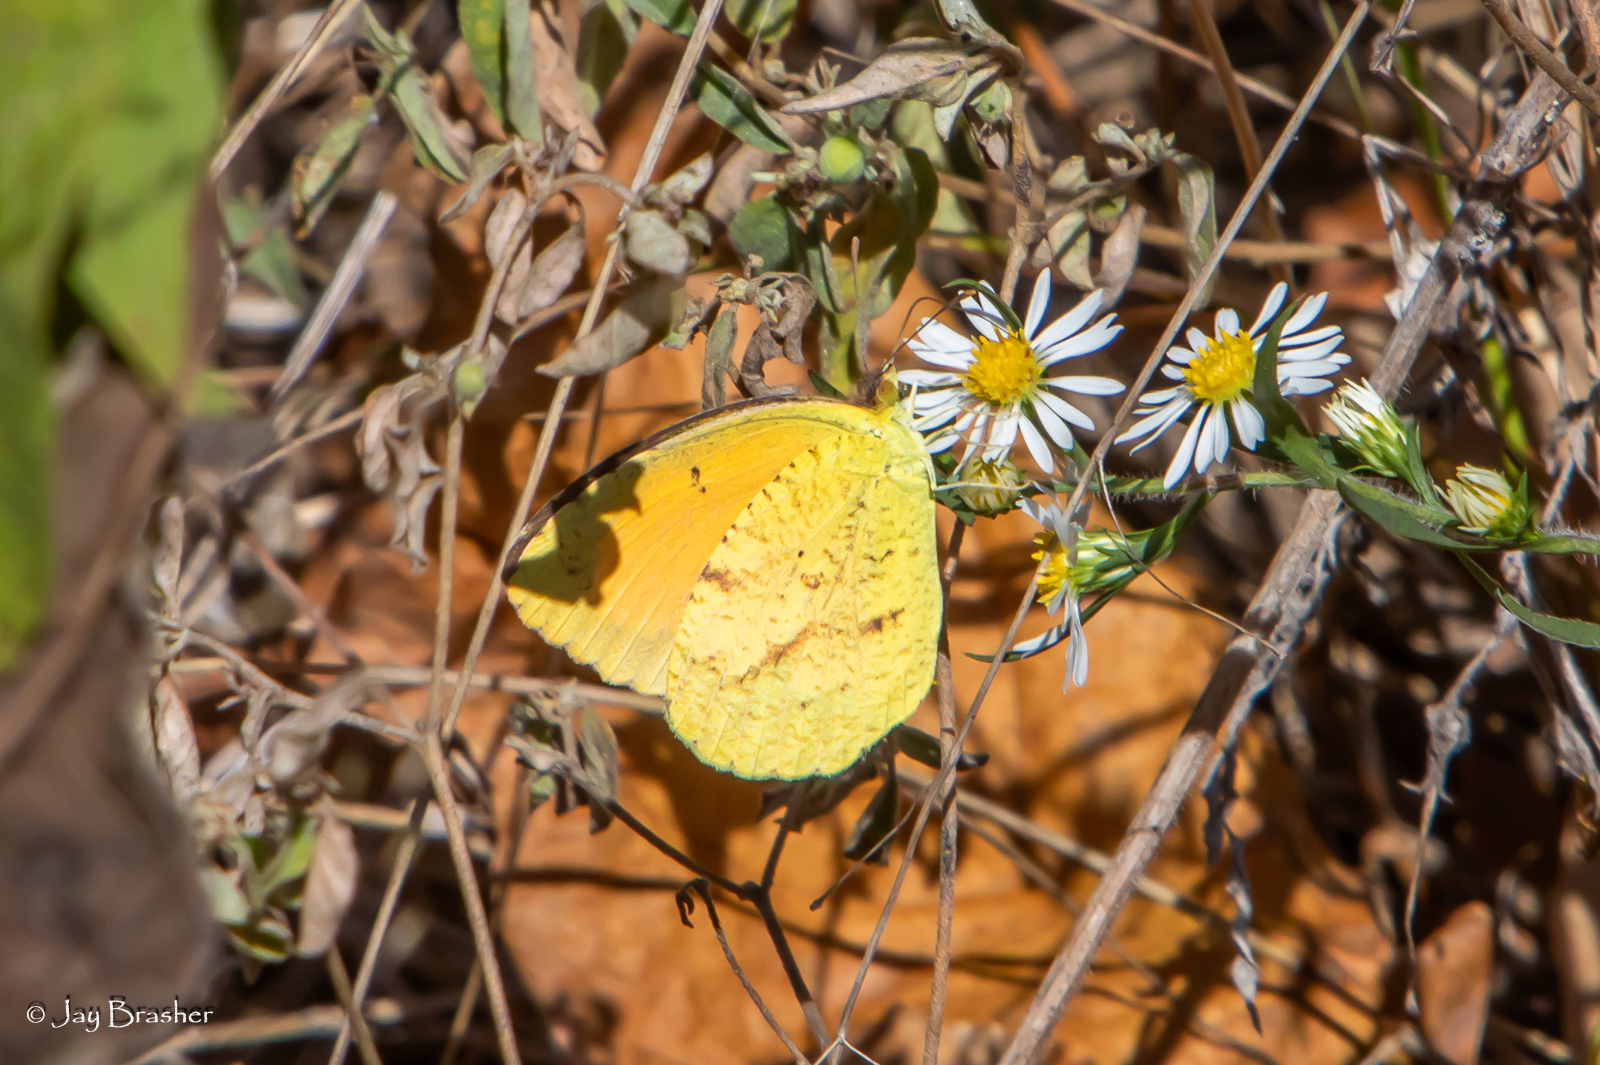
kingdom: Animalia
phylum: Arthropoda
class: Insecta
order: Lepidoptera
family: Pieridae
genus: Abaeis
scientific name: Abaeis nicippe
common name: Sleepy orange
